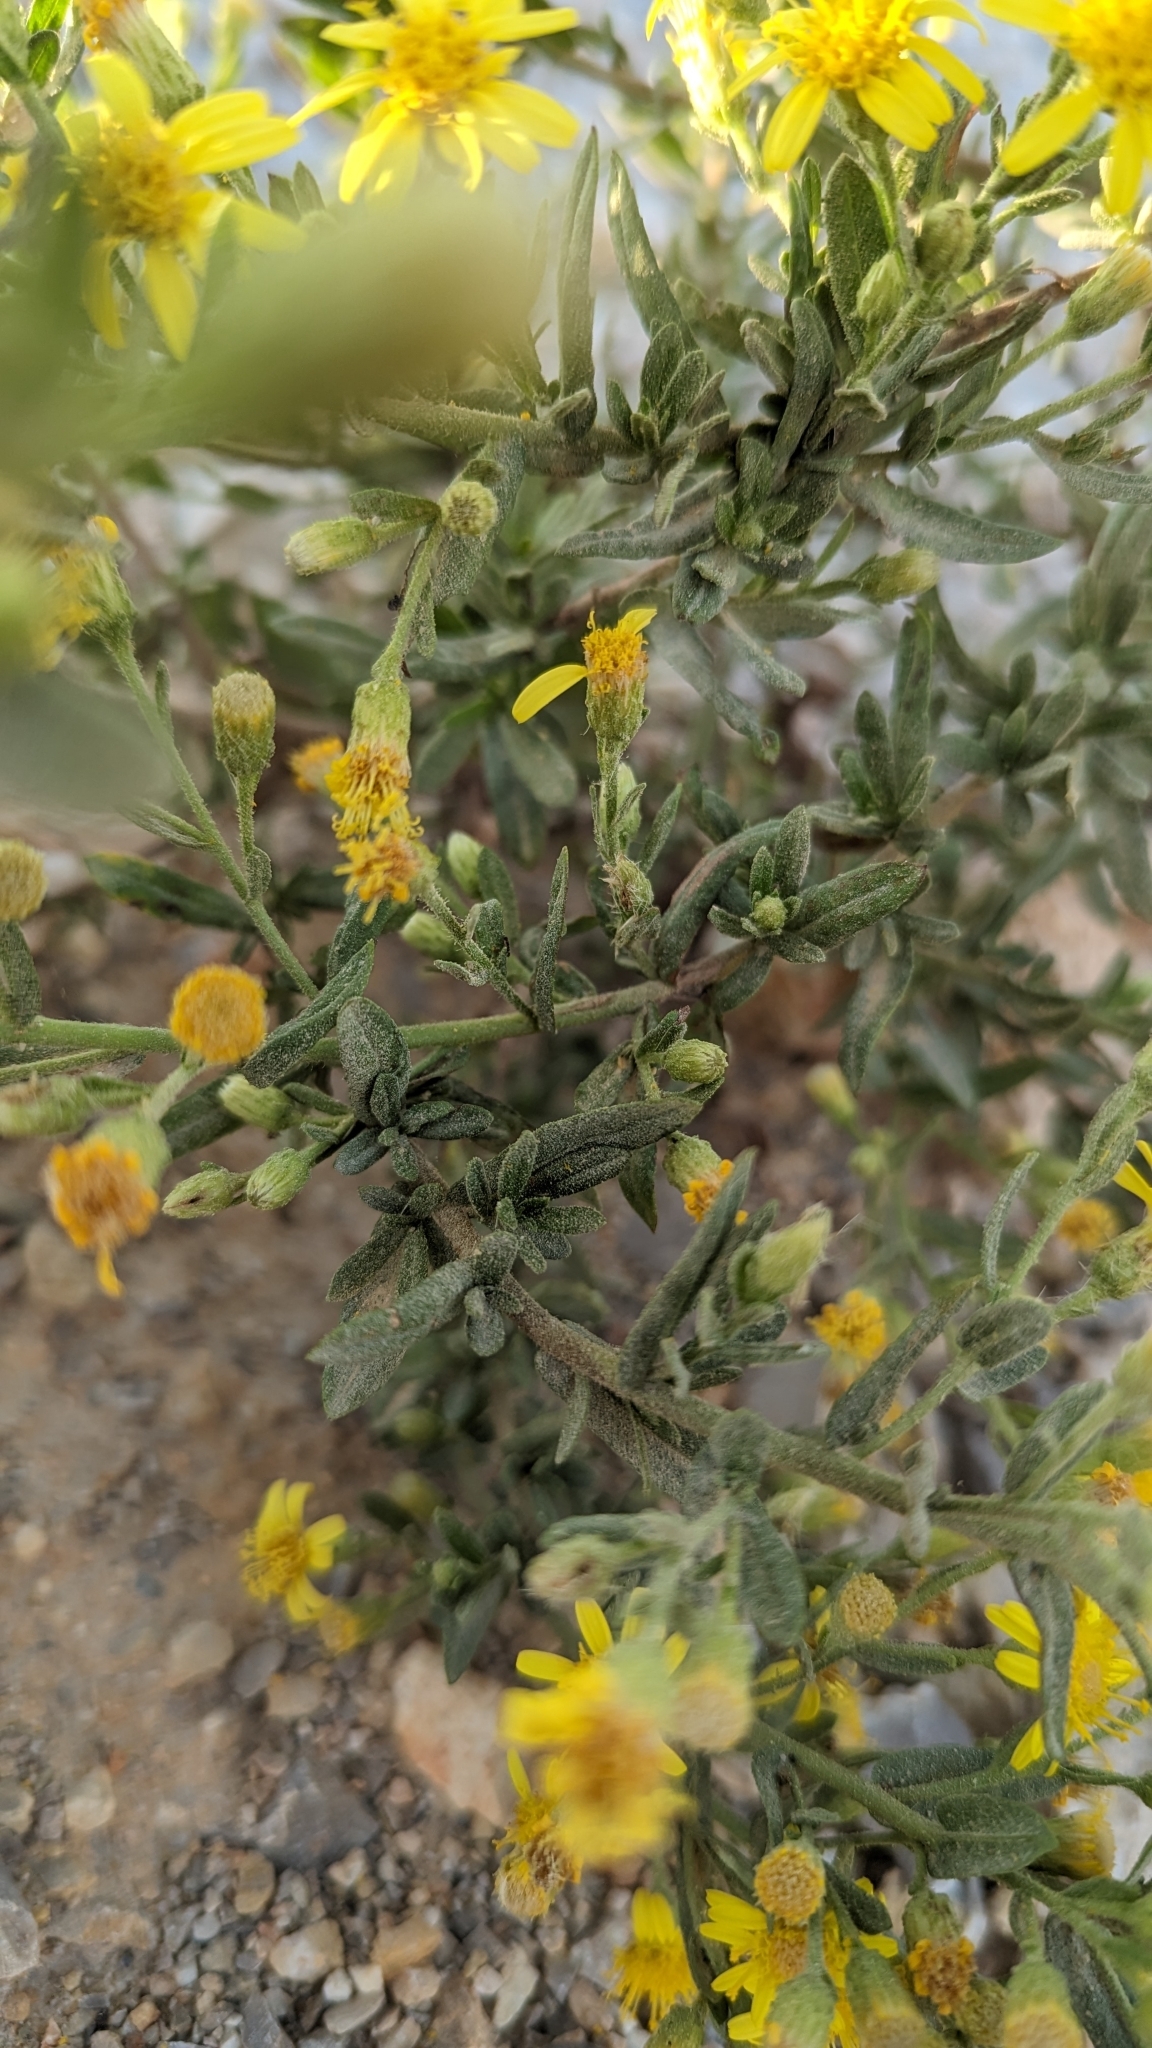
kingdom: Plantae
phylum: Tracheophyta
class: Magnoliopsida
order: Asterales
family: Asteraceae
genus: Dittrichia
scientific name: Dittrichia viscosa
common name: Woody fleabane
